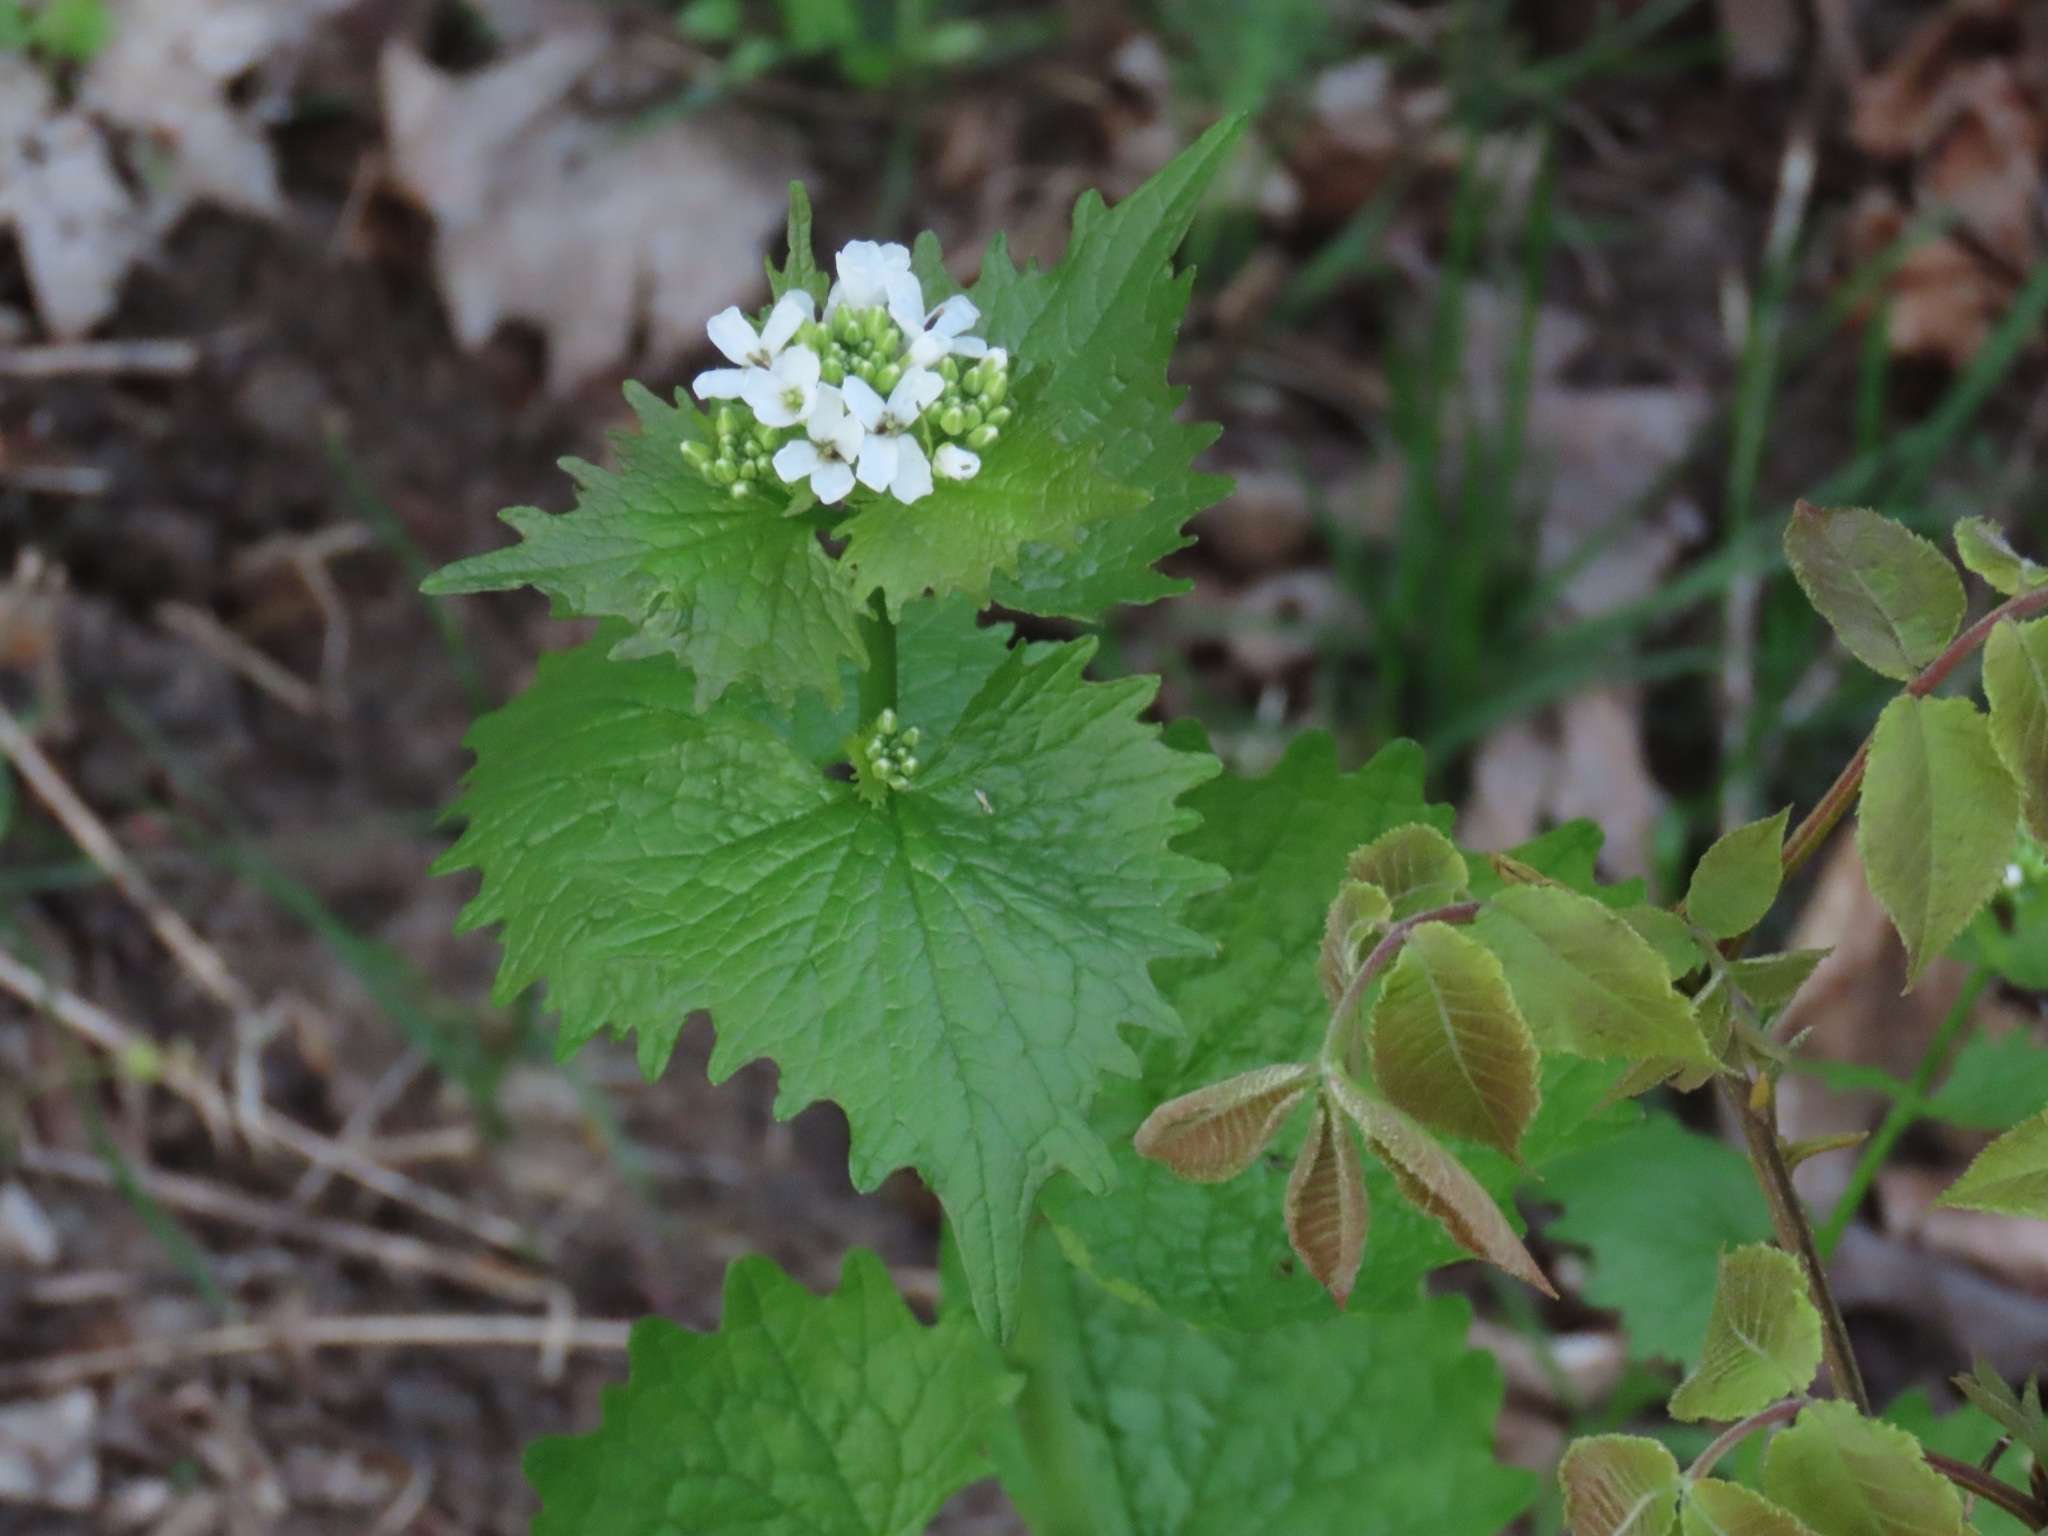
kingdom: Plantae
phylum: Tracheophyta
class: Magnoliopsida
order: Brassicales
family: Brassicaceae
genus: Alliaria
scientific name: Alliaria petiolata
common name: Garlic mustard
